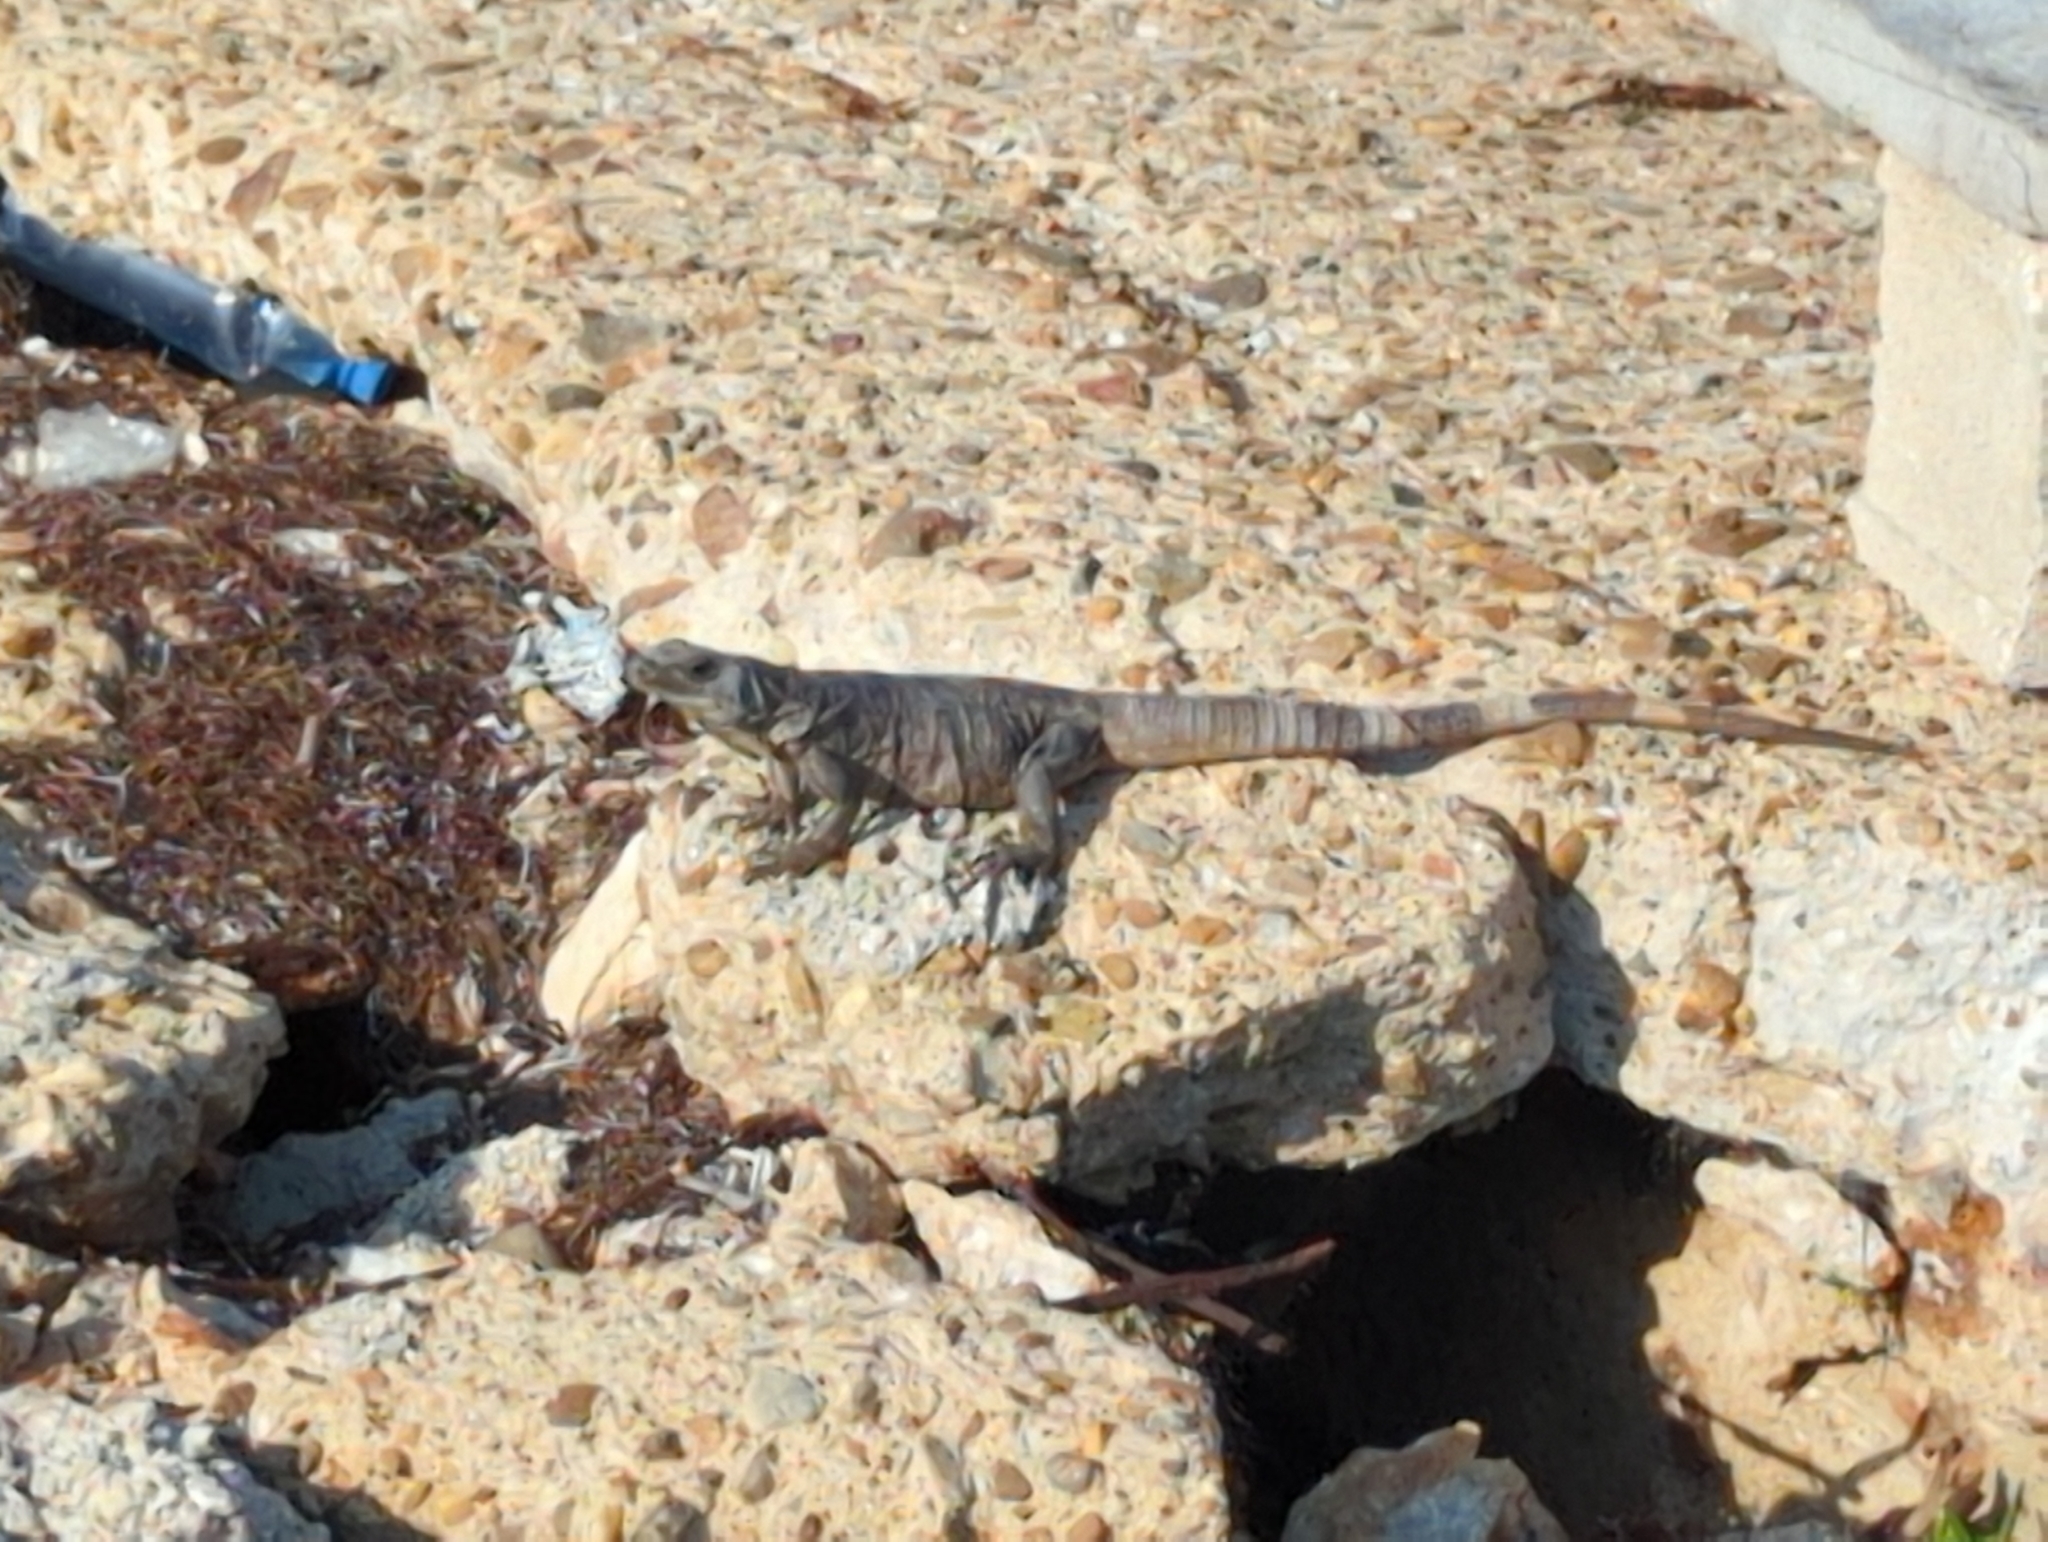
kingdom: Animalia
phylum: Chordata
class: Squamata
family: Iguanidae
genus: Ctenosaura
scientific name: Ctenosaura similis
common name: Black spiny-tailed iguana
